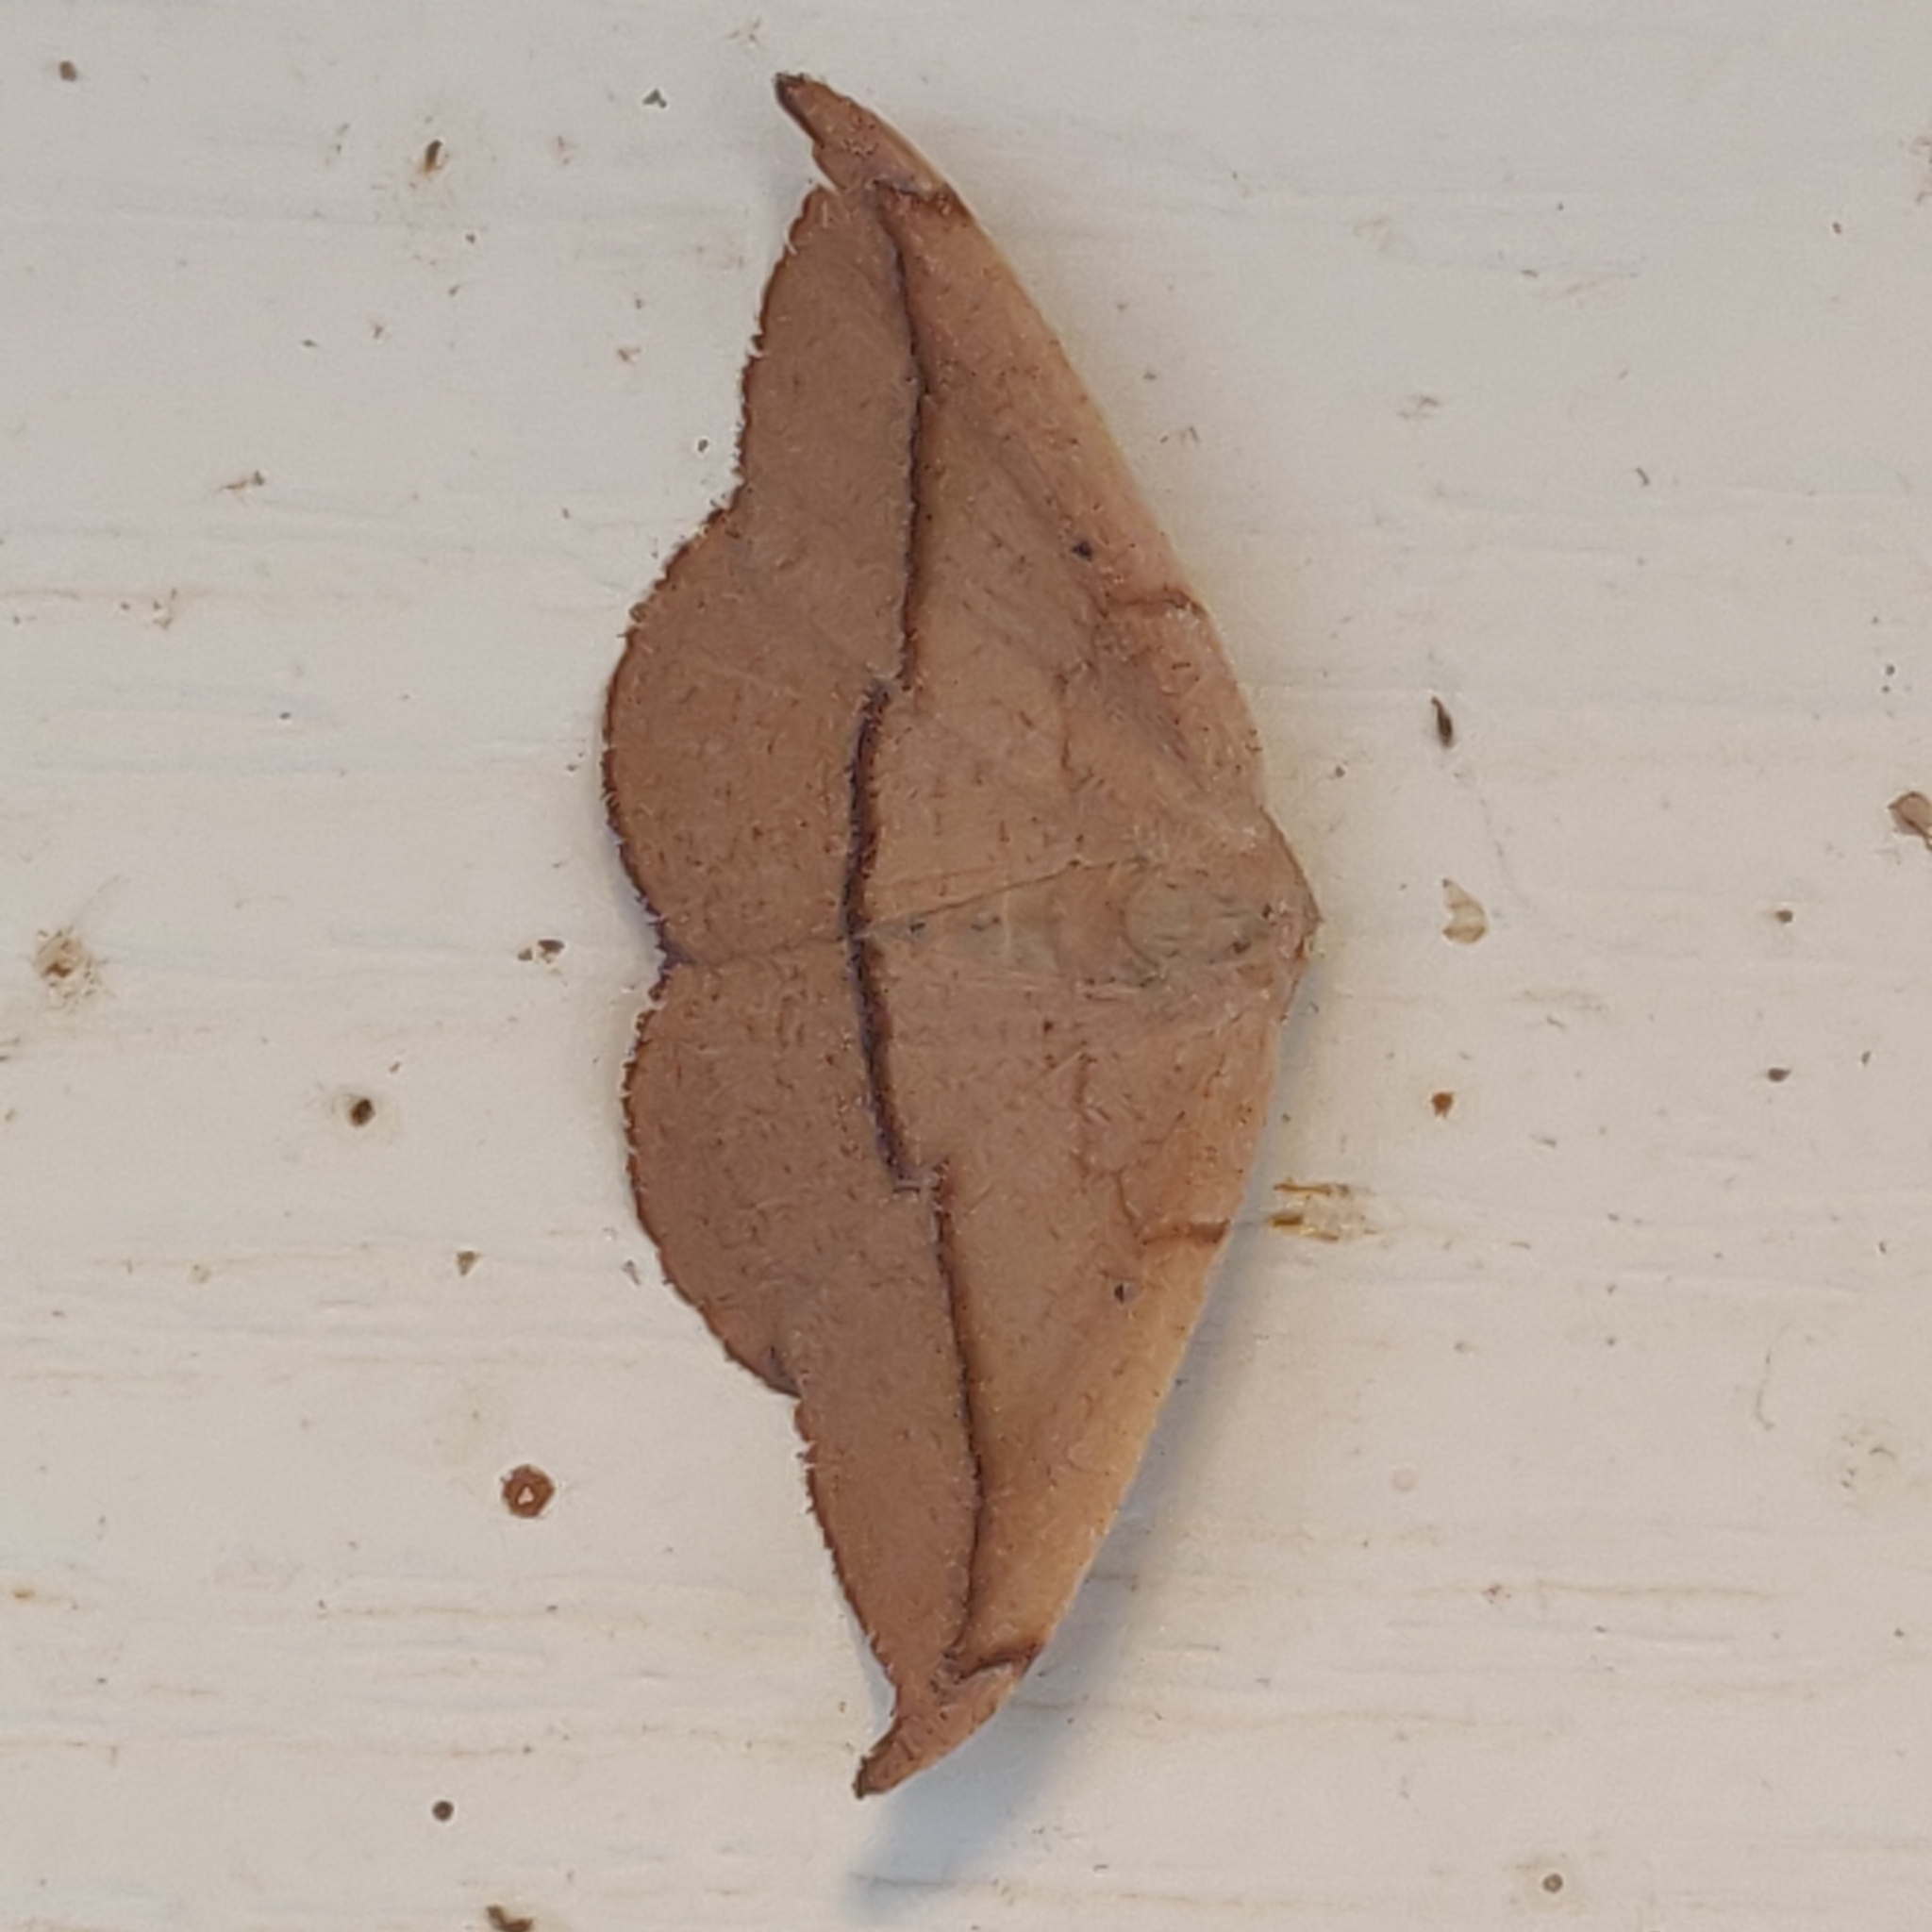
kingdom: Animalia
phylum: Arthropoda
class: Insecta
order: Lepidoptera
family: Geometridae
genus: Patalene
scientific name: Patalene olyzonaria
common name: Juniper geometer moth
